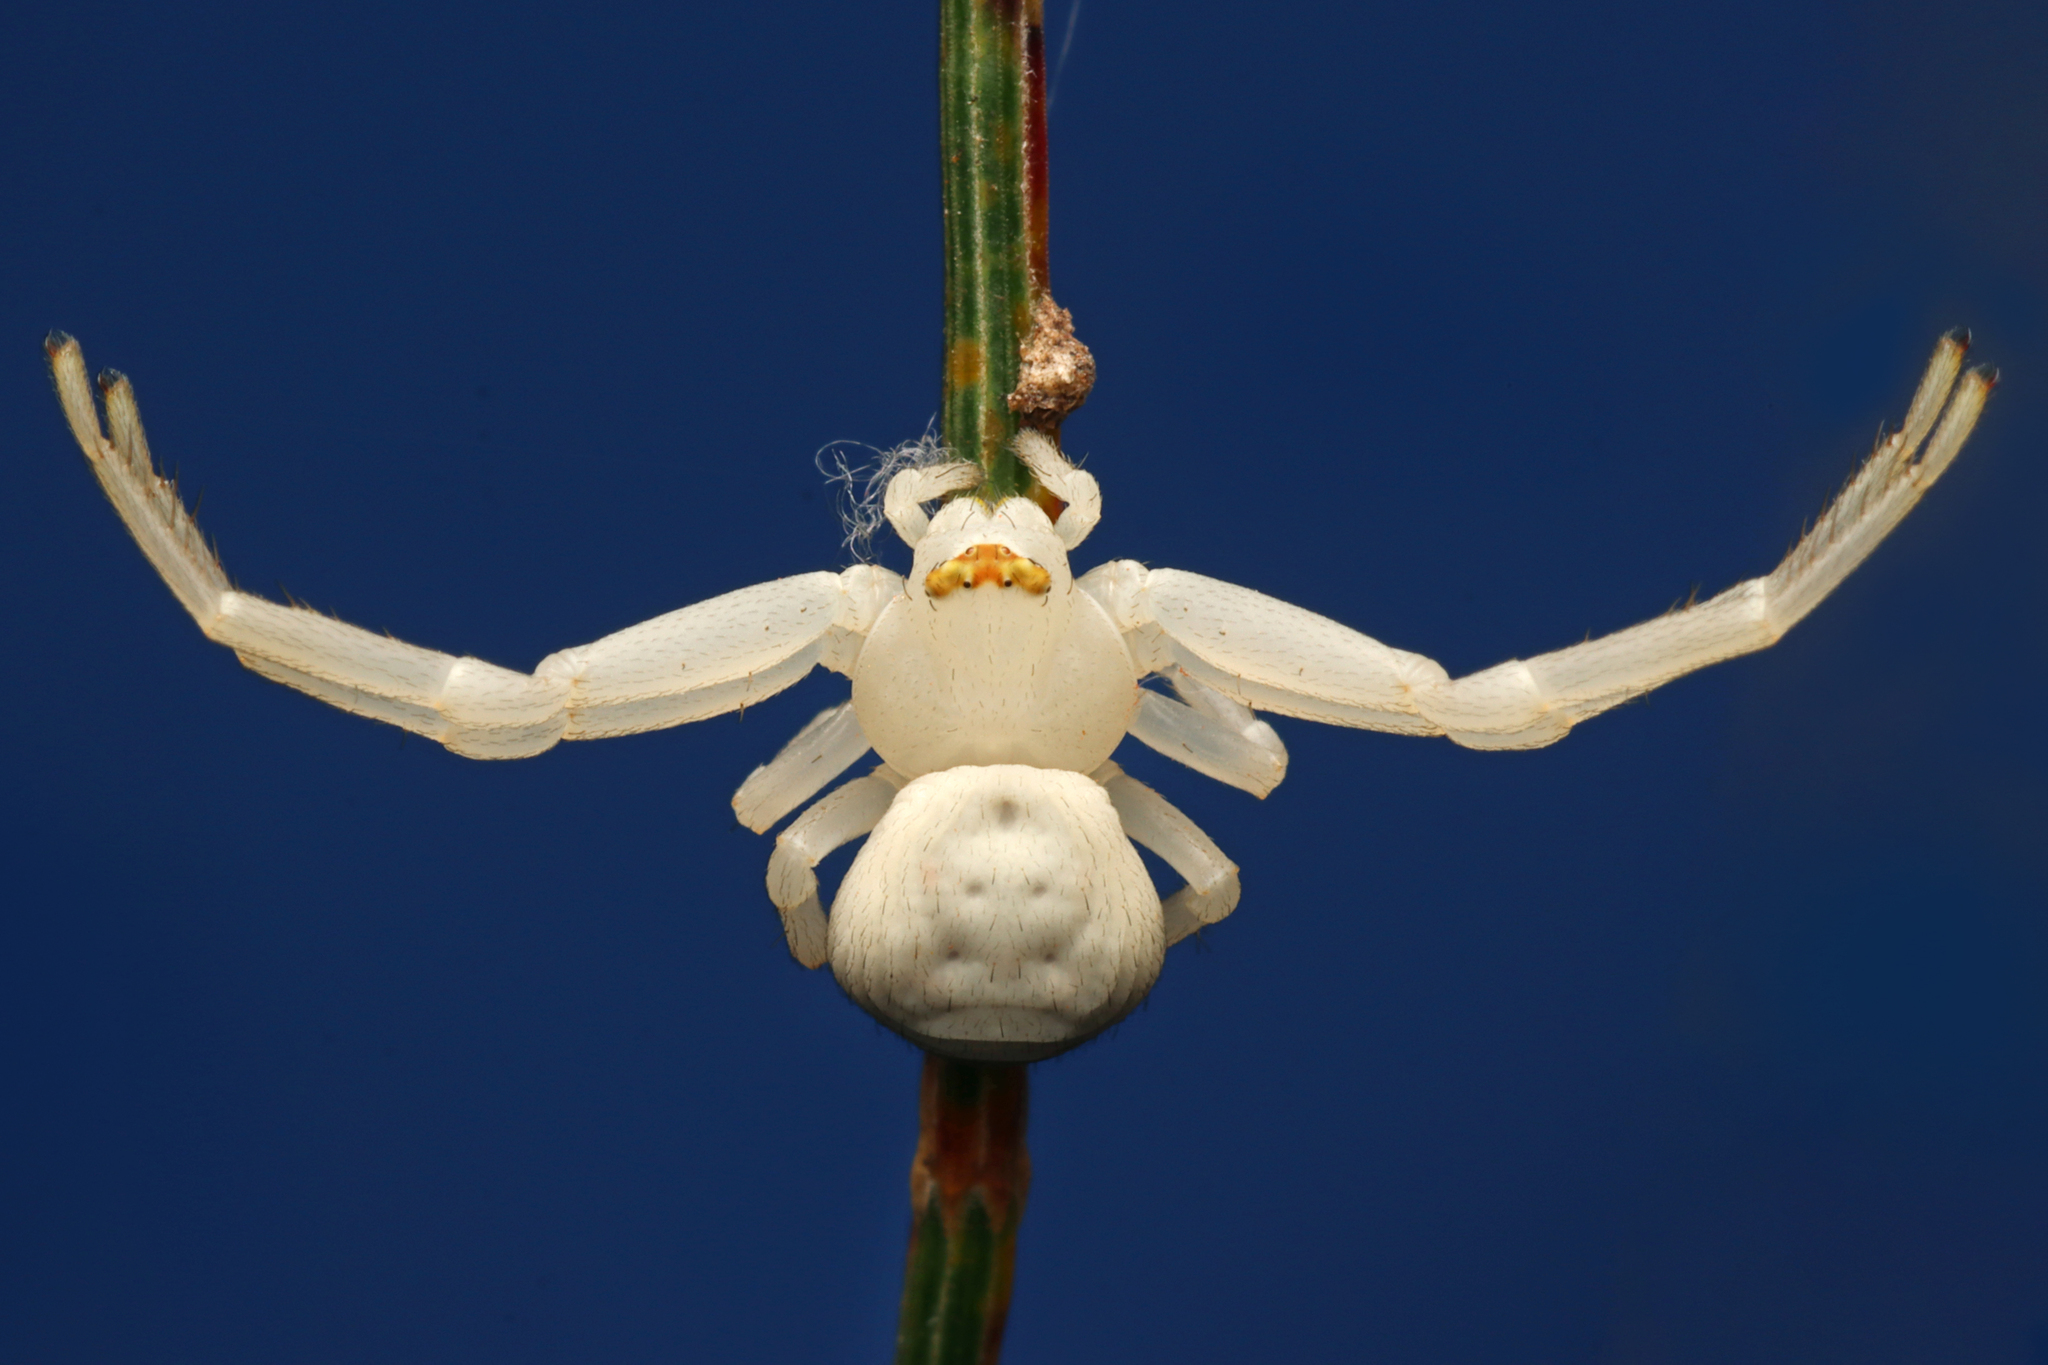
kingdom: Animalia
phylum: Arthropoda
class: Arachnida
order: Araneae
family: Thomisidae
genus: Zygometis
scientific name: Zygometis xanthogaster
